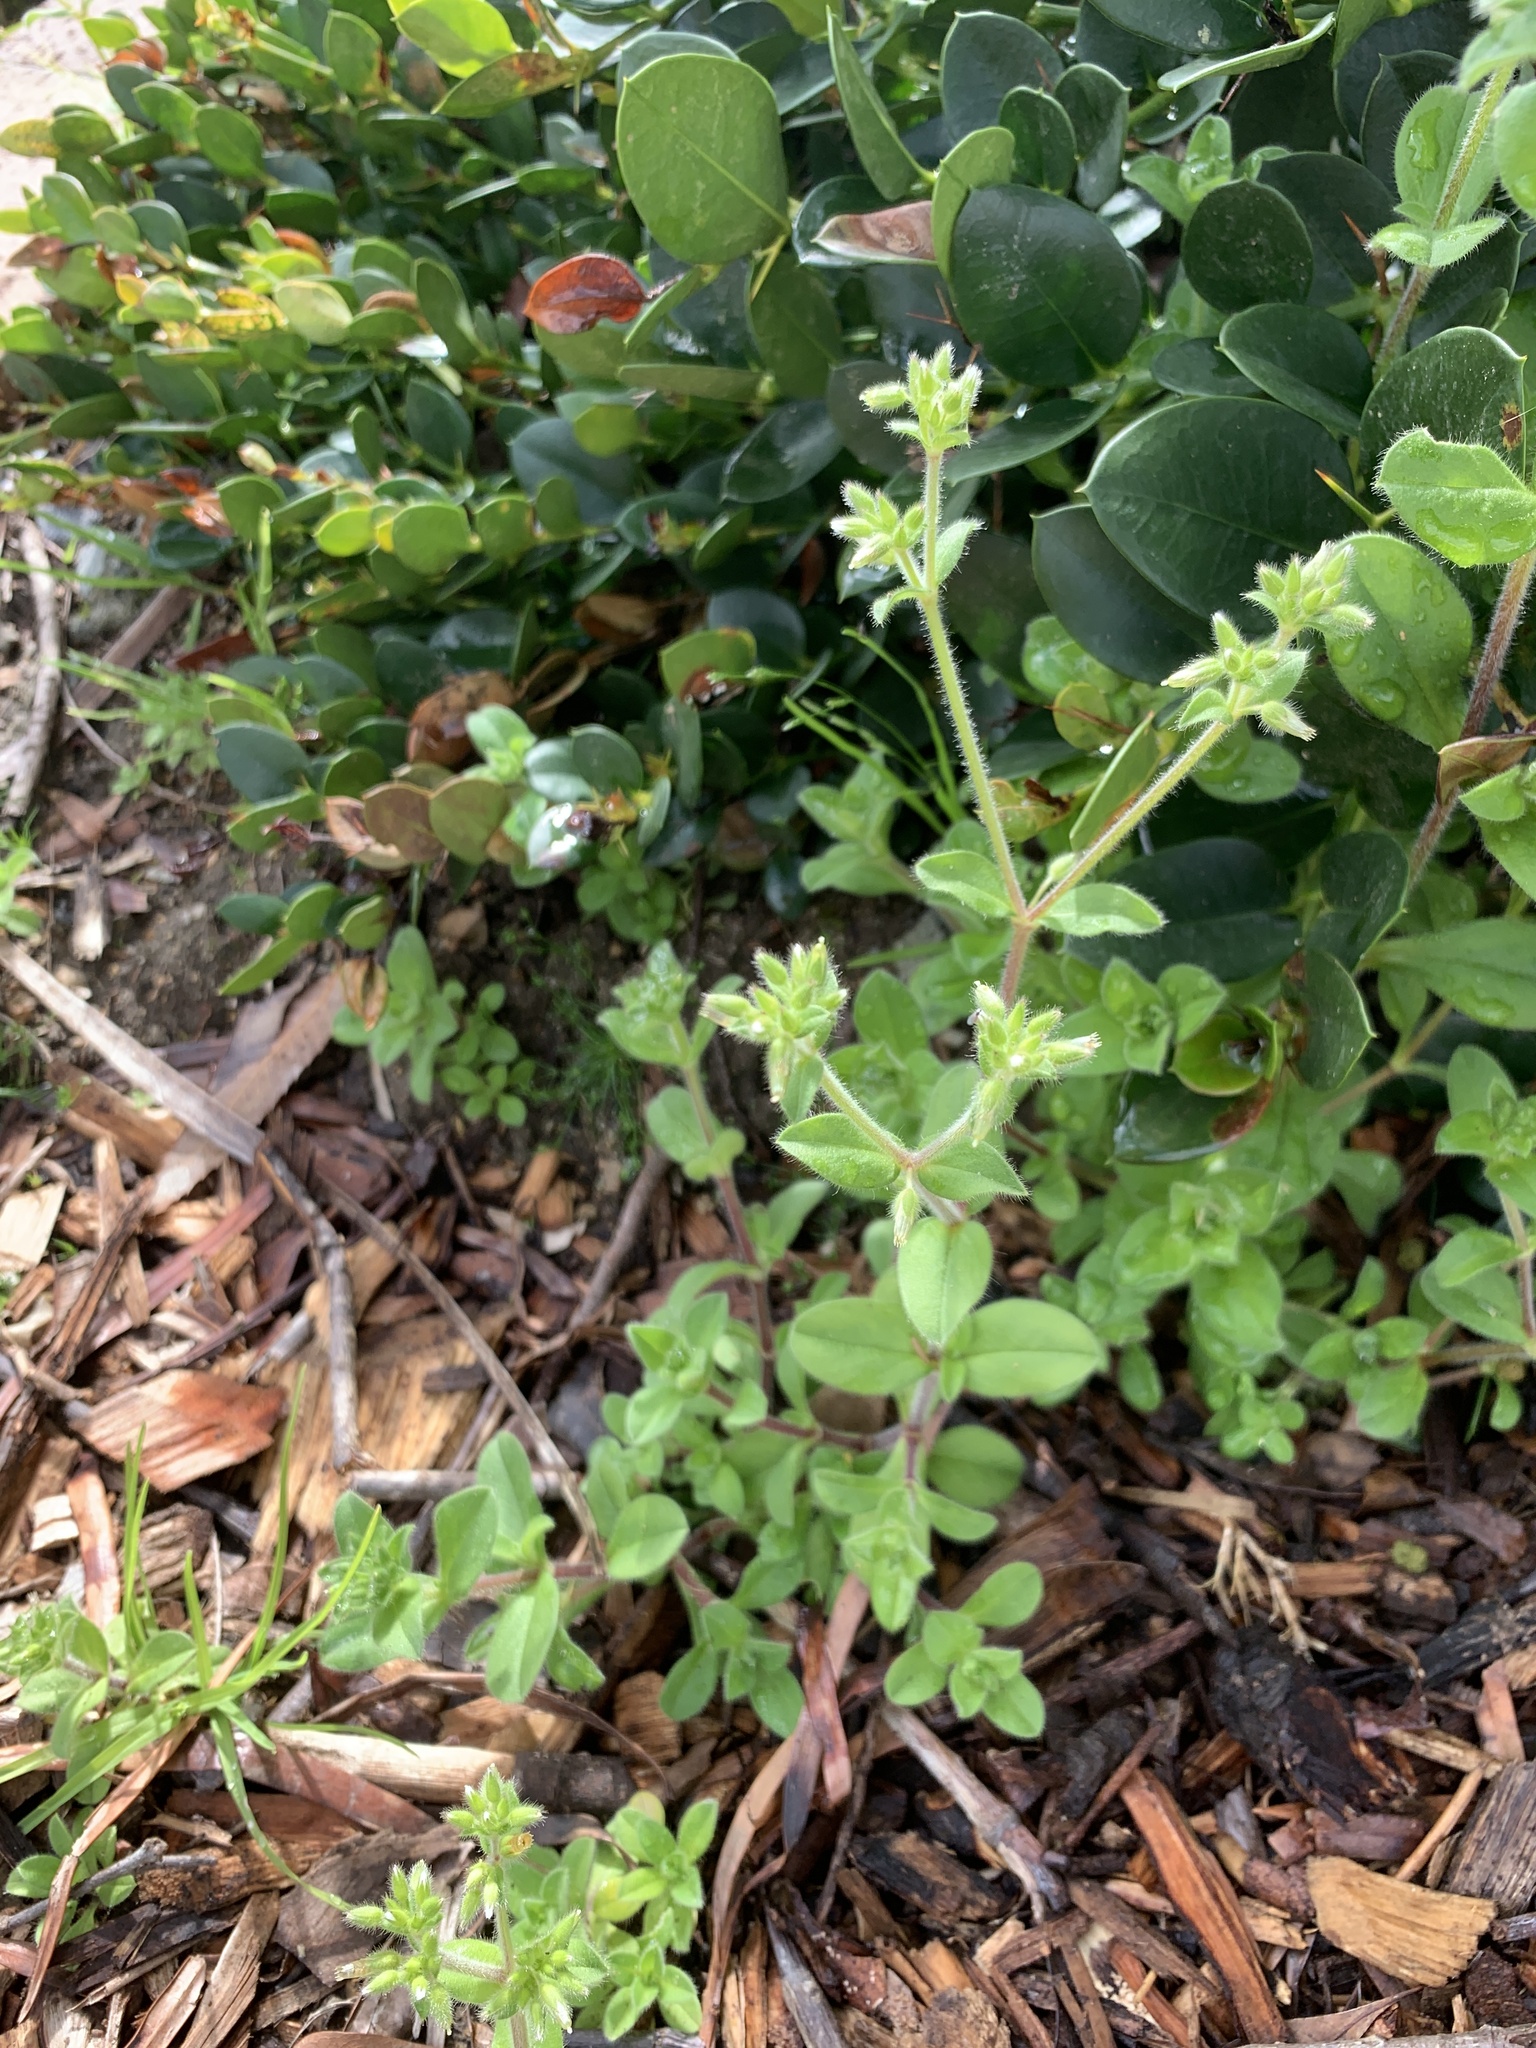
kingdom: Plantae
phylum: Tracheophyta
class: Magnoliopsida
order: Caryophyllales
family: Caryophyllaceae
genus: Cerastium
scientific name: Cerastium glomeratum
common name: Sticky chickweed
